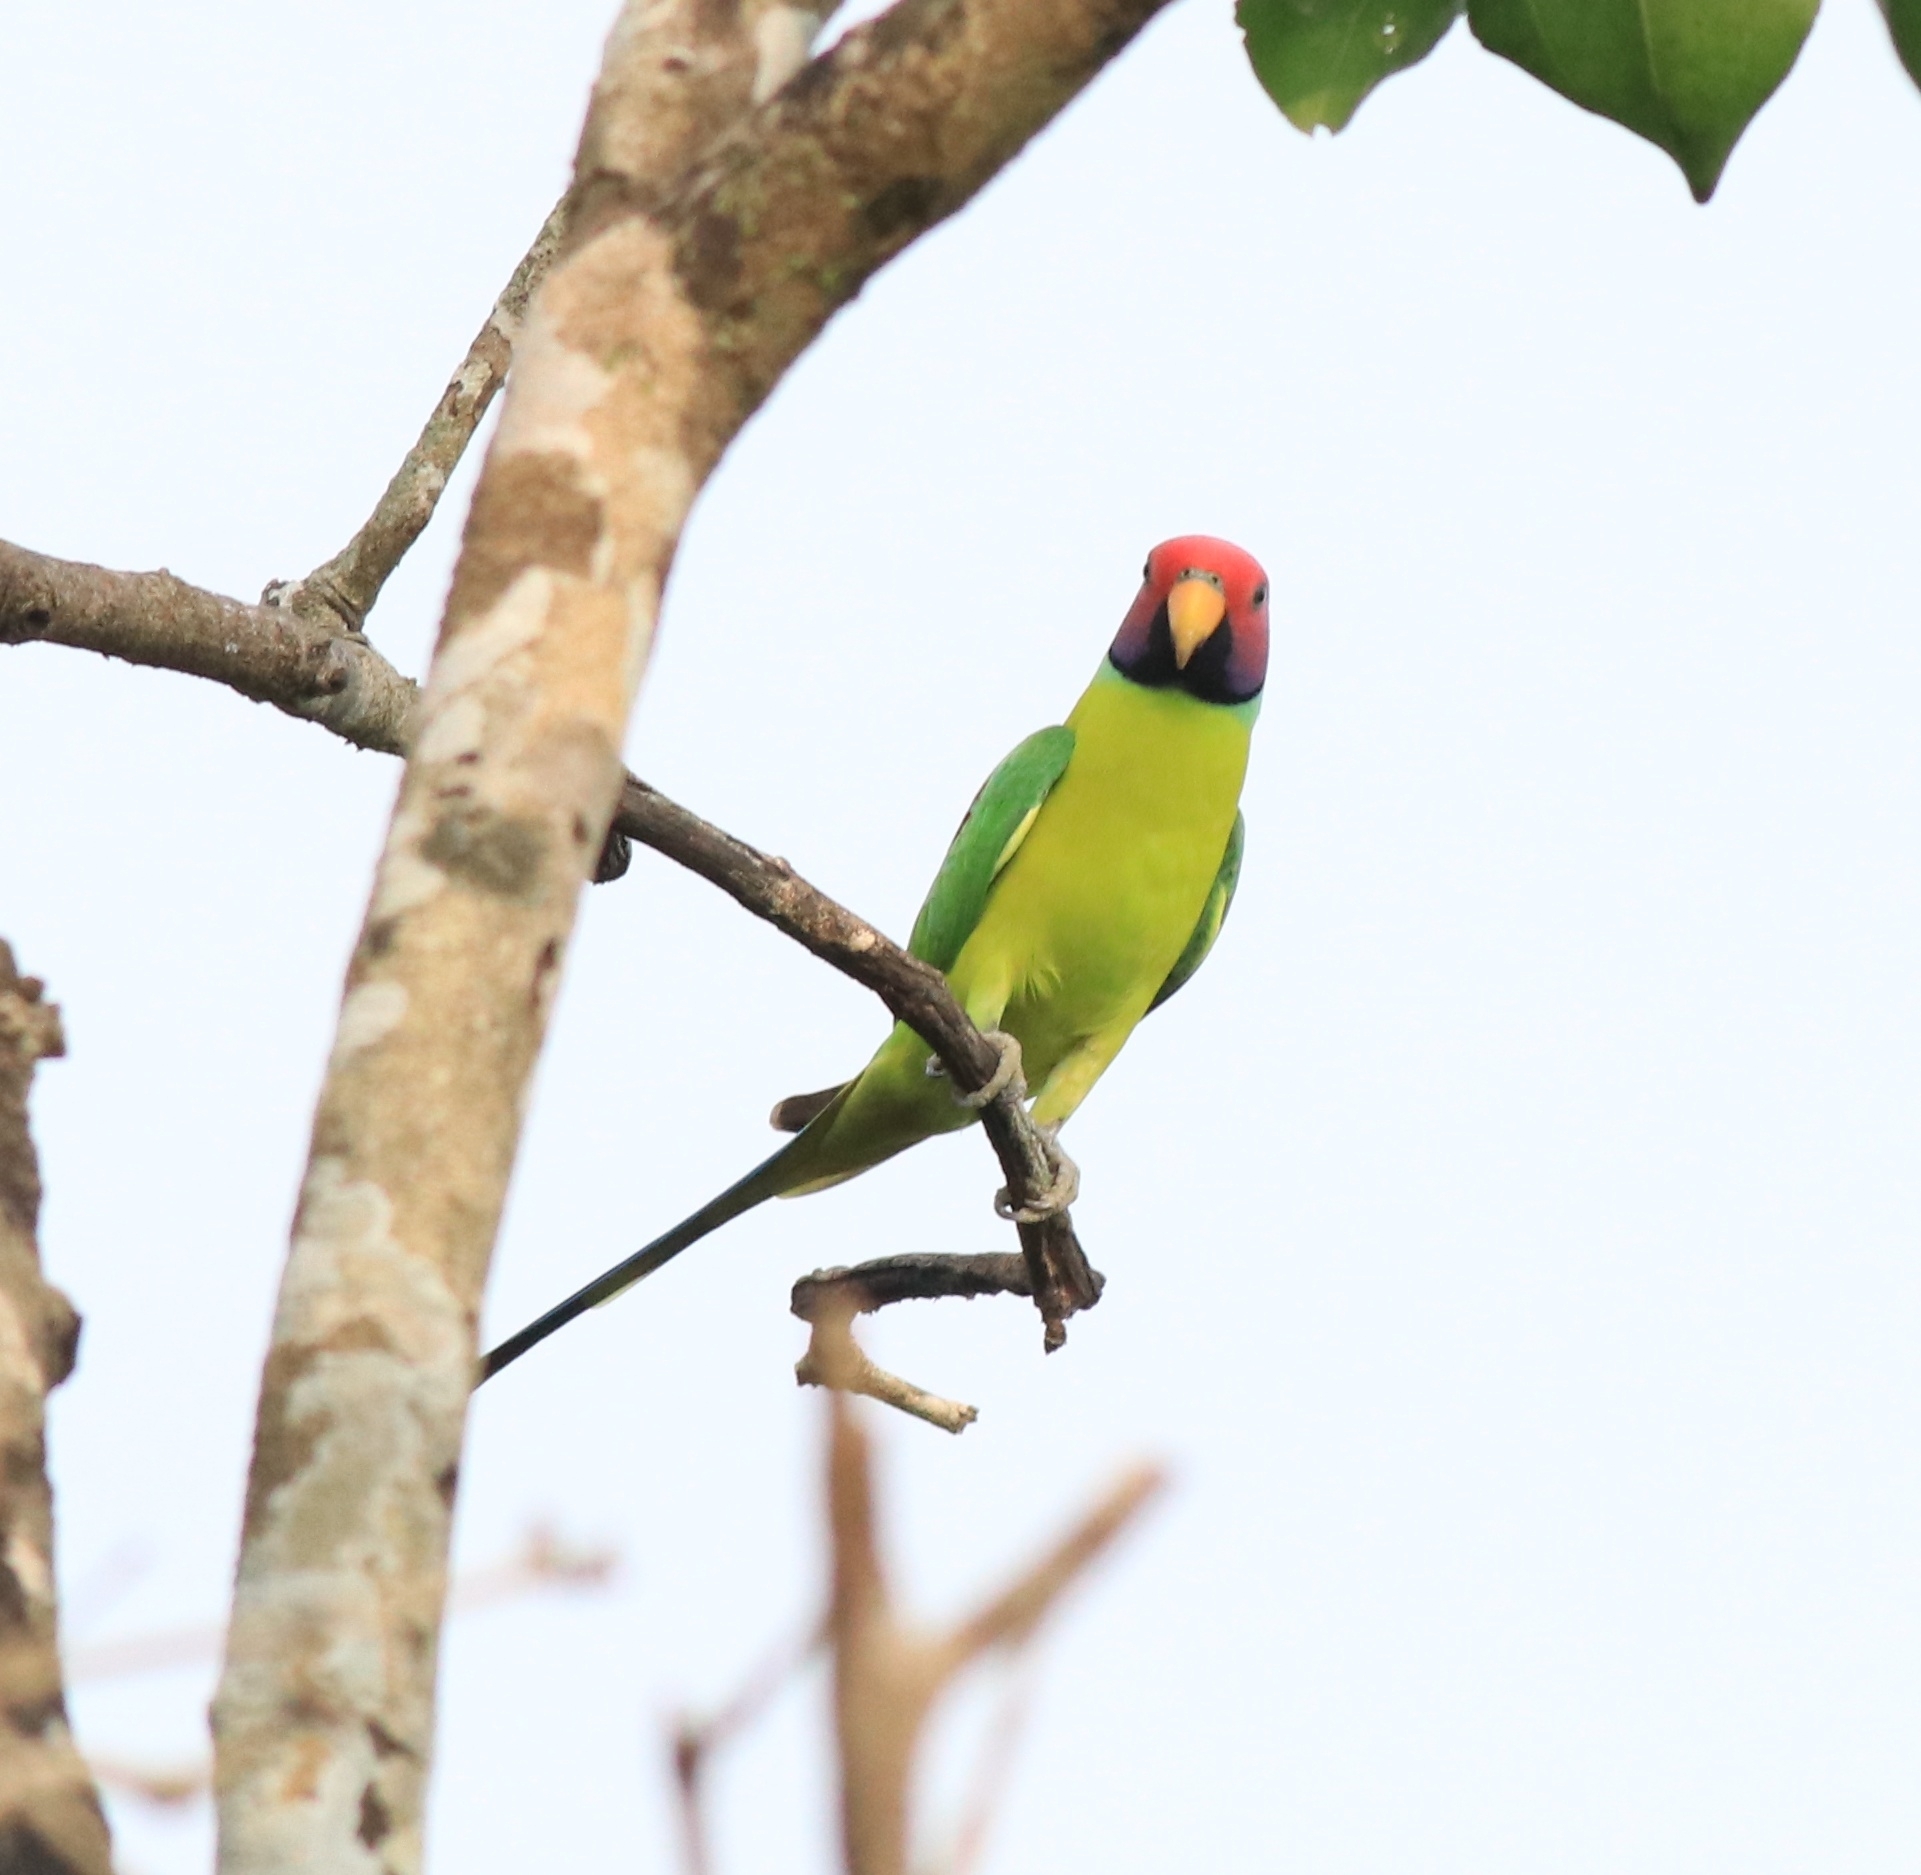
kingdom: Animalia
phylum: Chordata
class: Aves
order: Psittaciformes
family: Psittacidae
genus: Psittacula
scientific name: Psittacula cyanocephala
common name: Plum-headed parakeet
